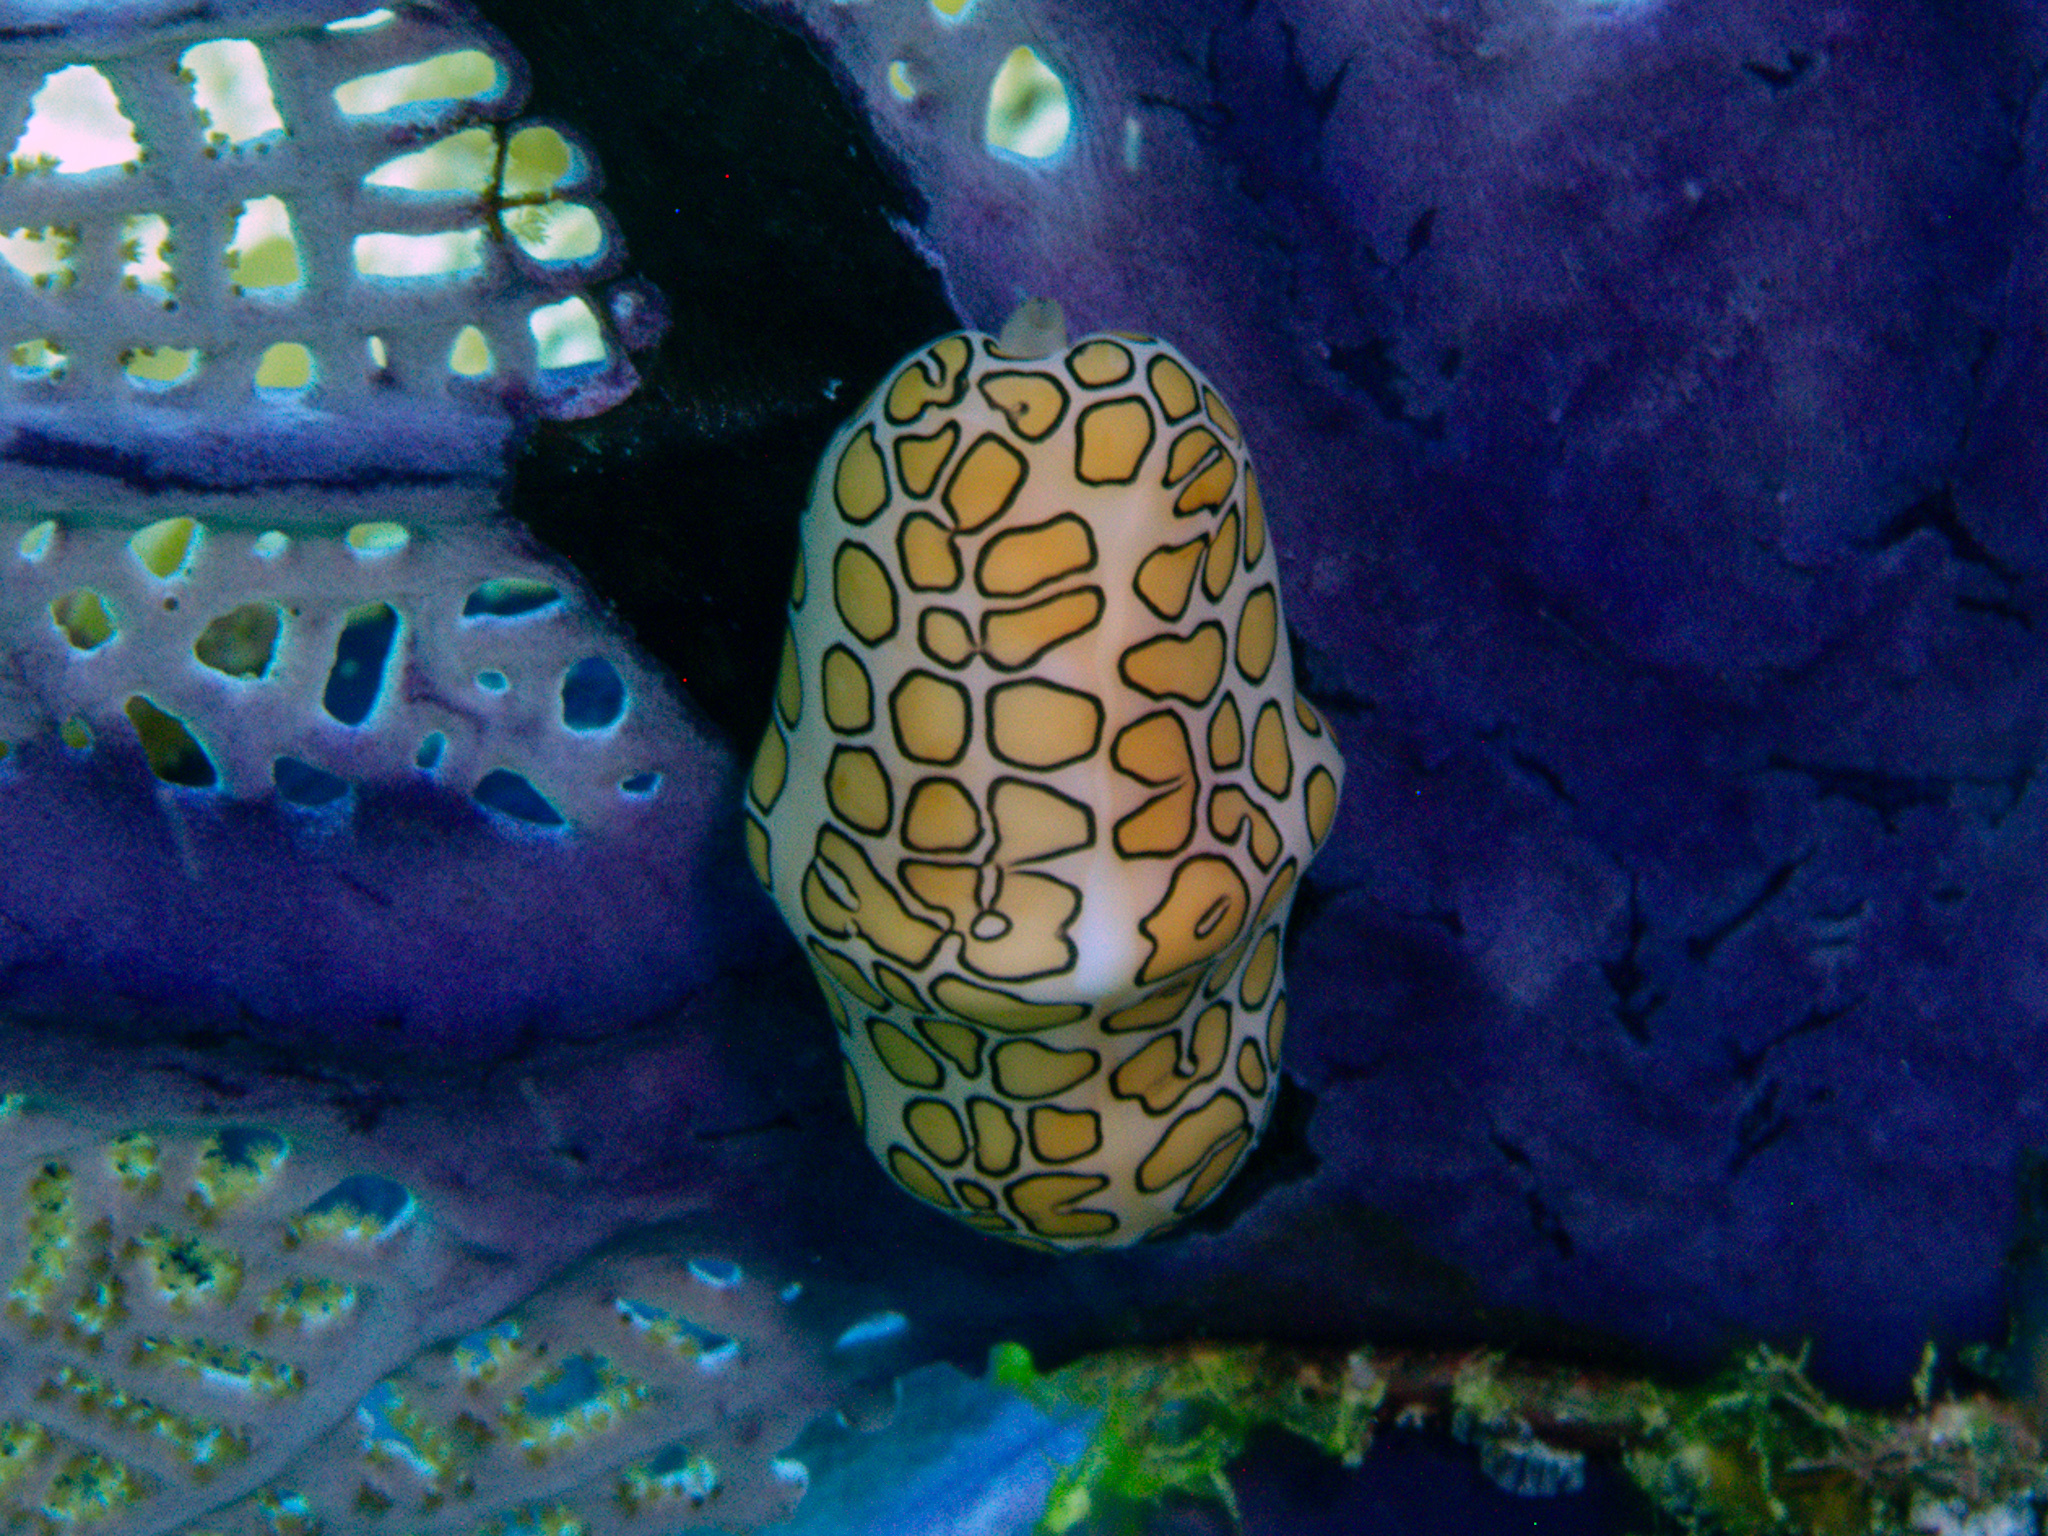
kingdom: Animalia
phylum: Mollusca
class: Gastropoda
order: Littorinimorpha
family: Ovulidae
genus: Cyphoma
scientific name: Cyphoma gibbosum
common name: Flamingo tongue
